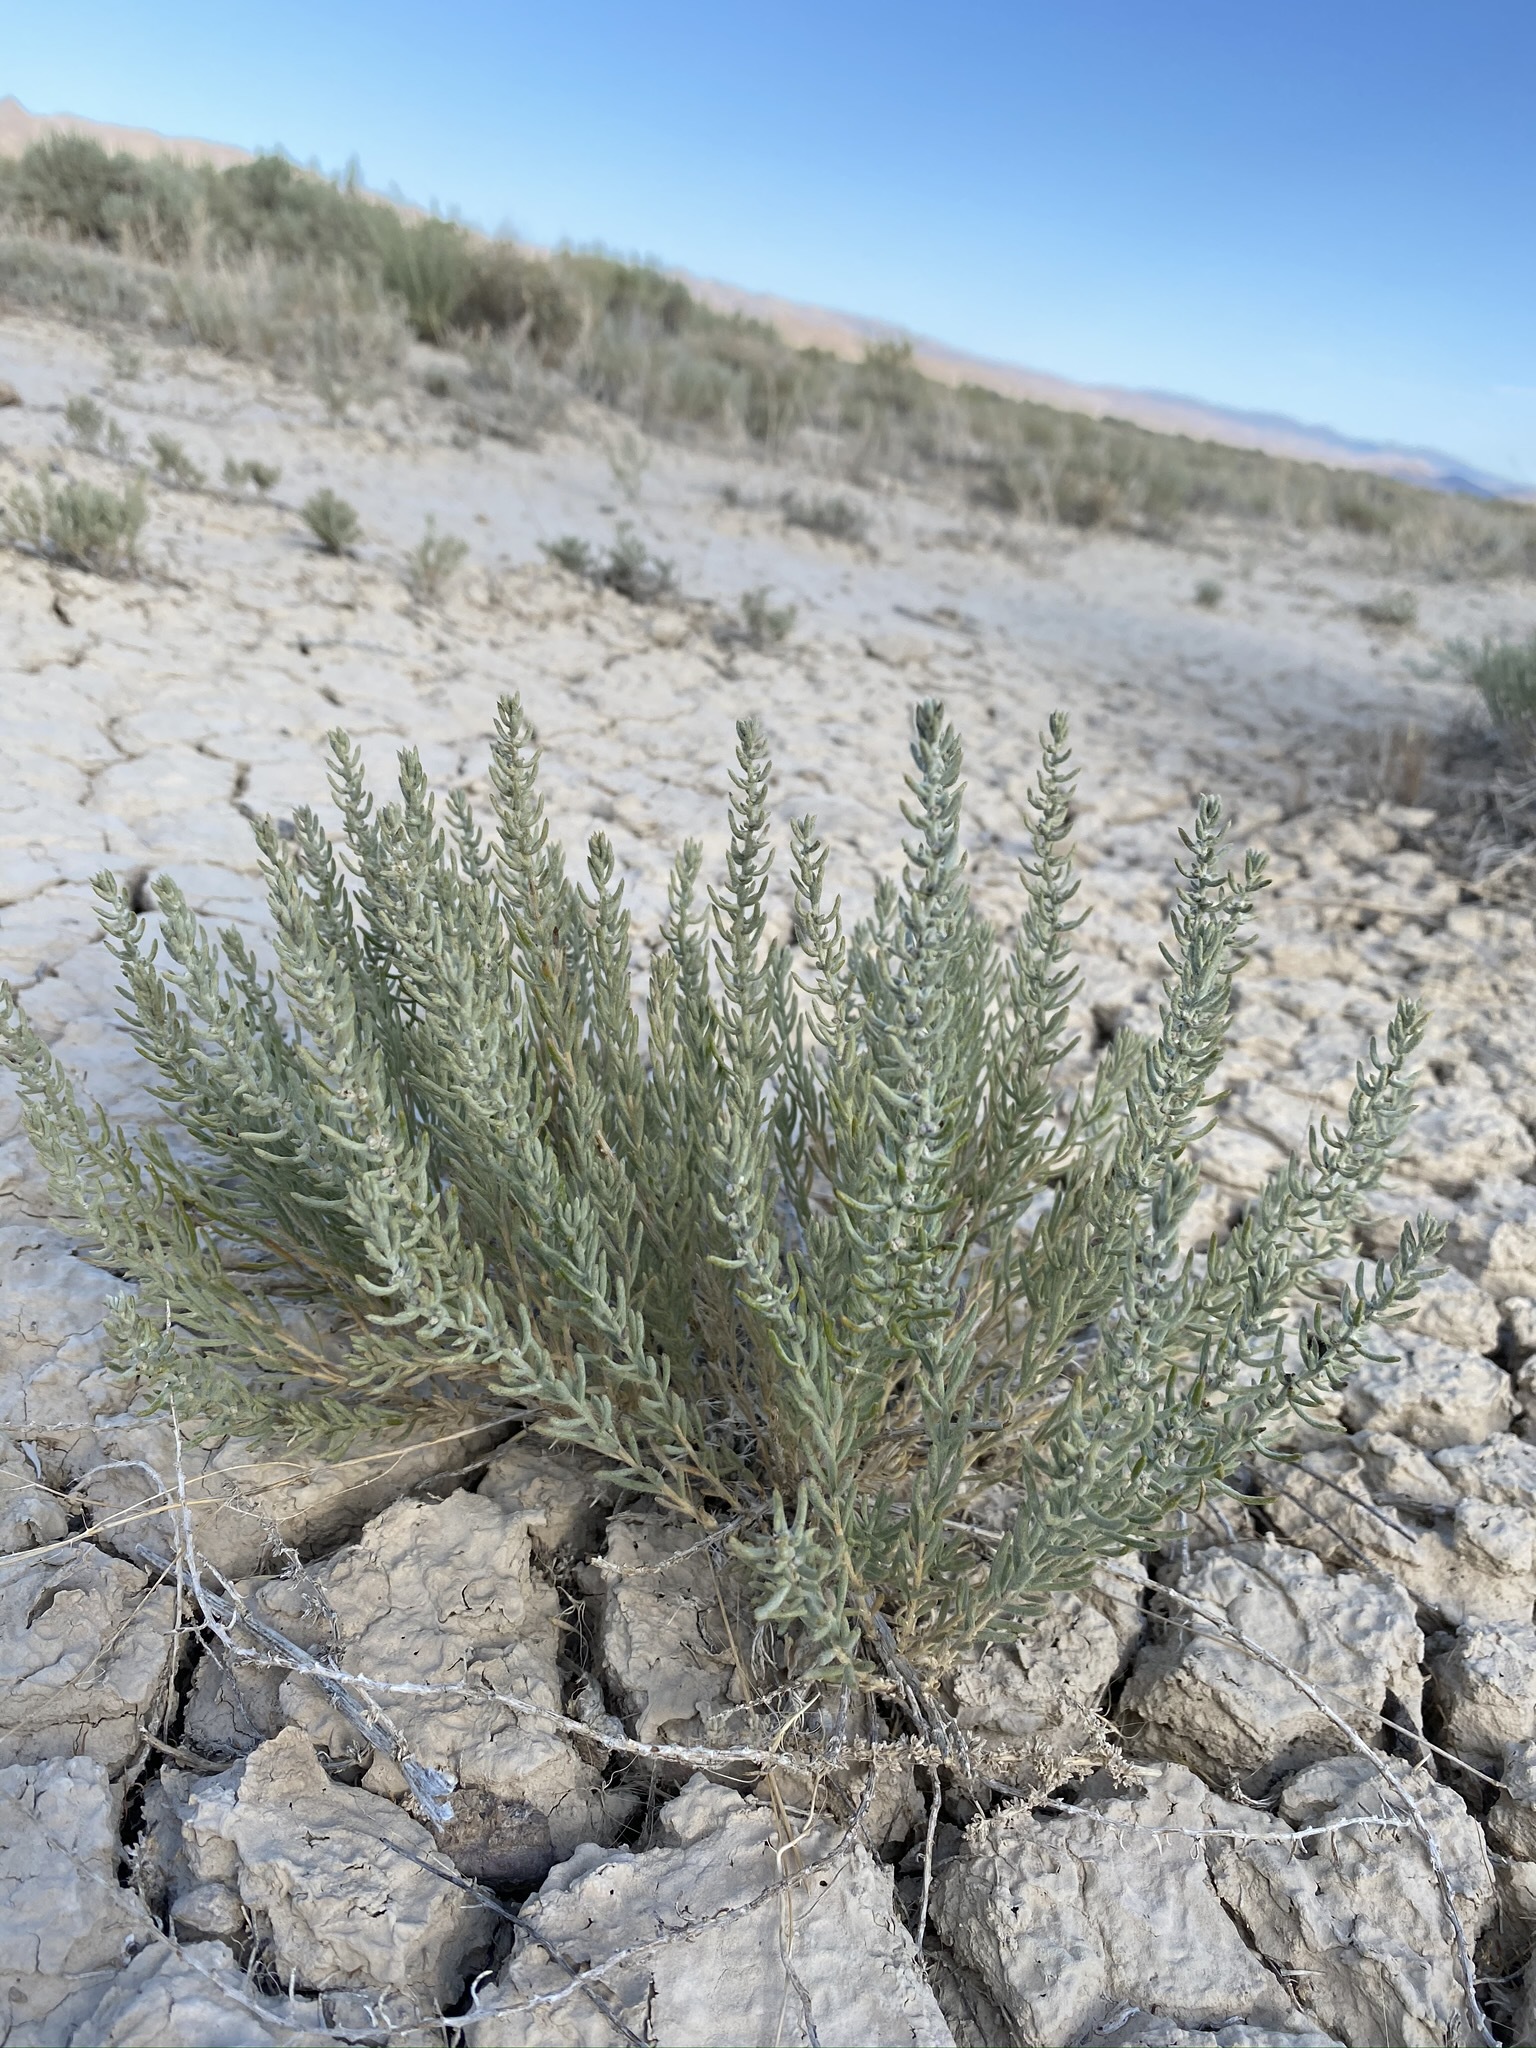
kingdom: Plantae
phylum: Tracheophyta
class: Magnoliopsida
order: Caryophyllales
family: Amaranthaceae
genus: Neokochia
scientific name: Neokochia americana
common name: Perennial summer-cypress
